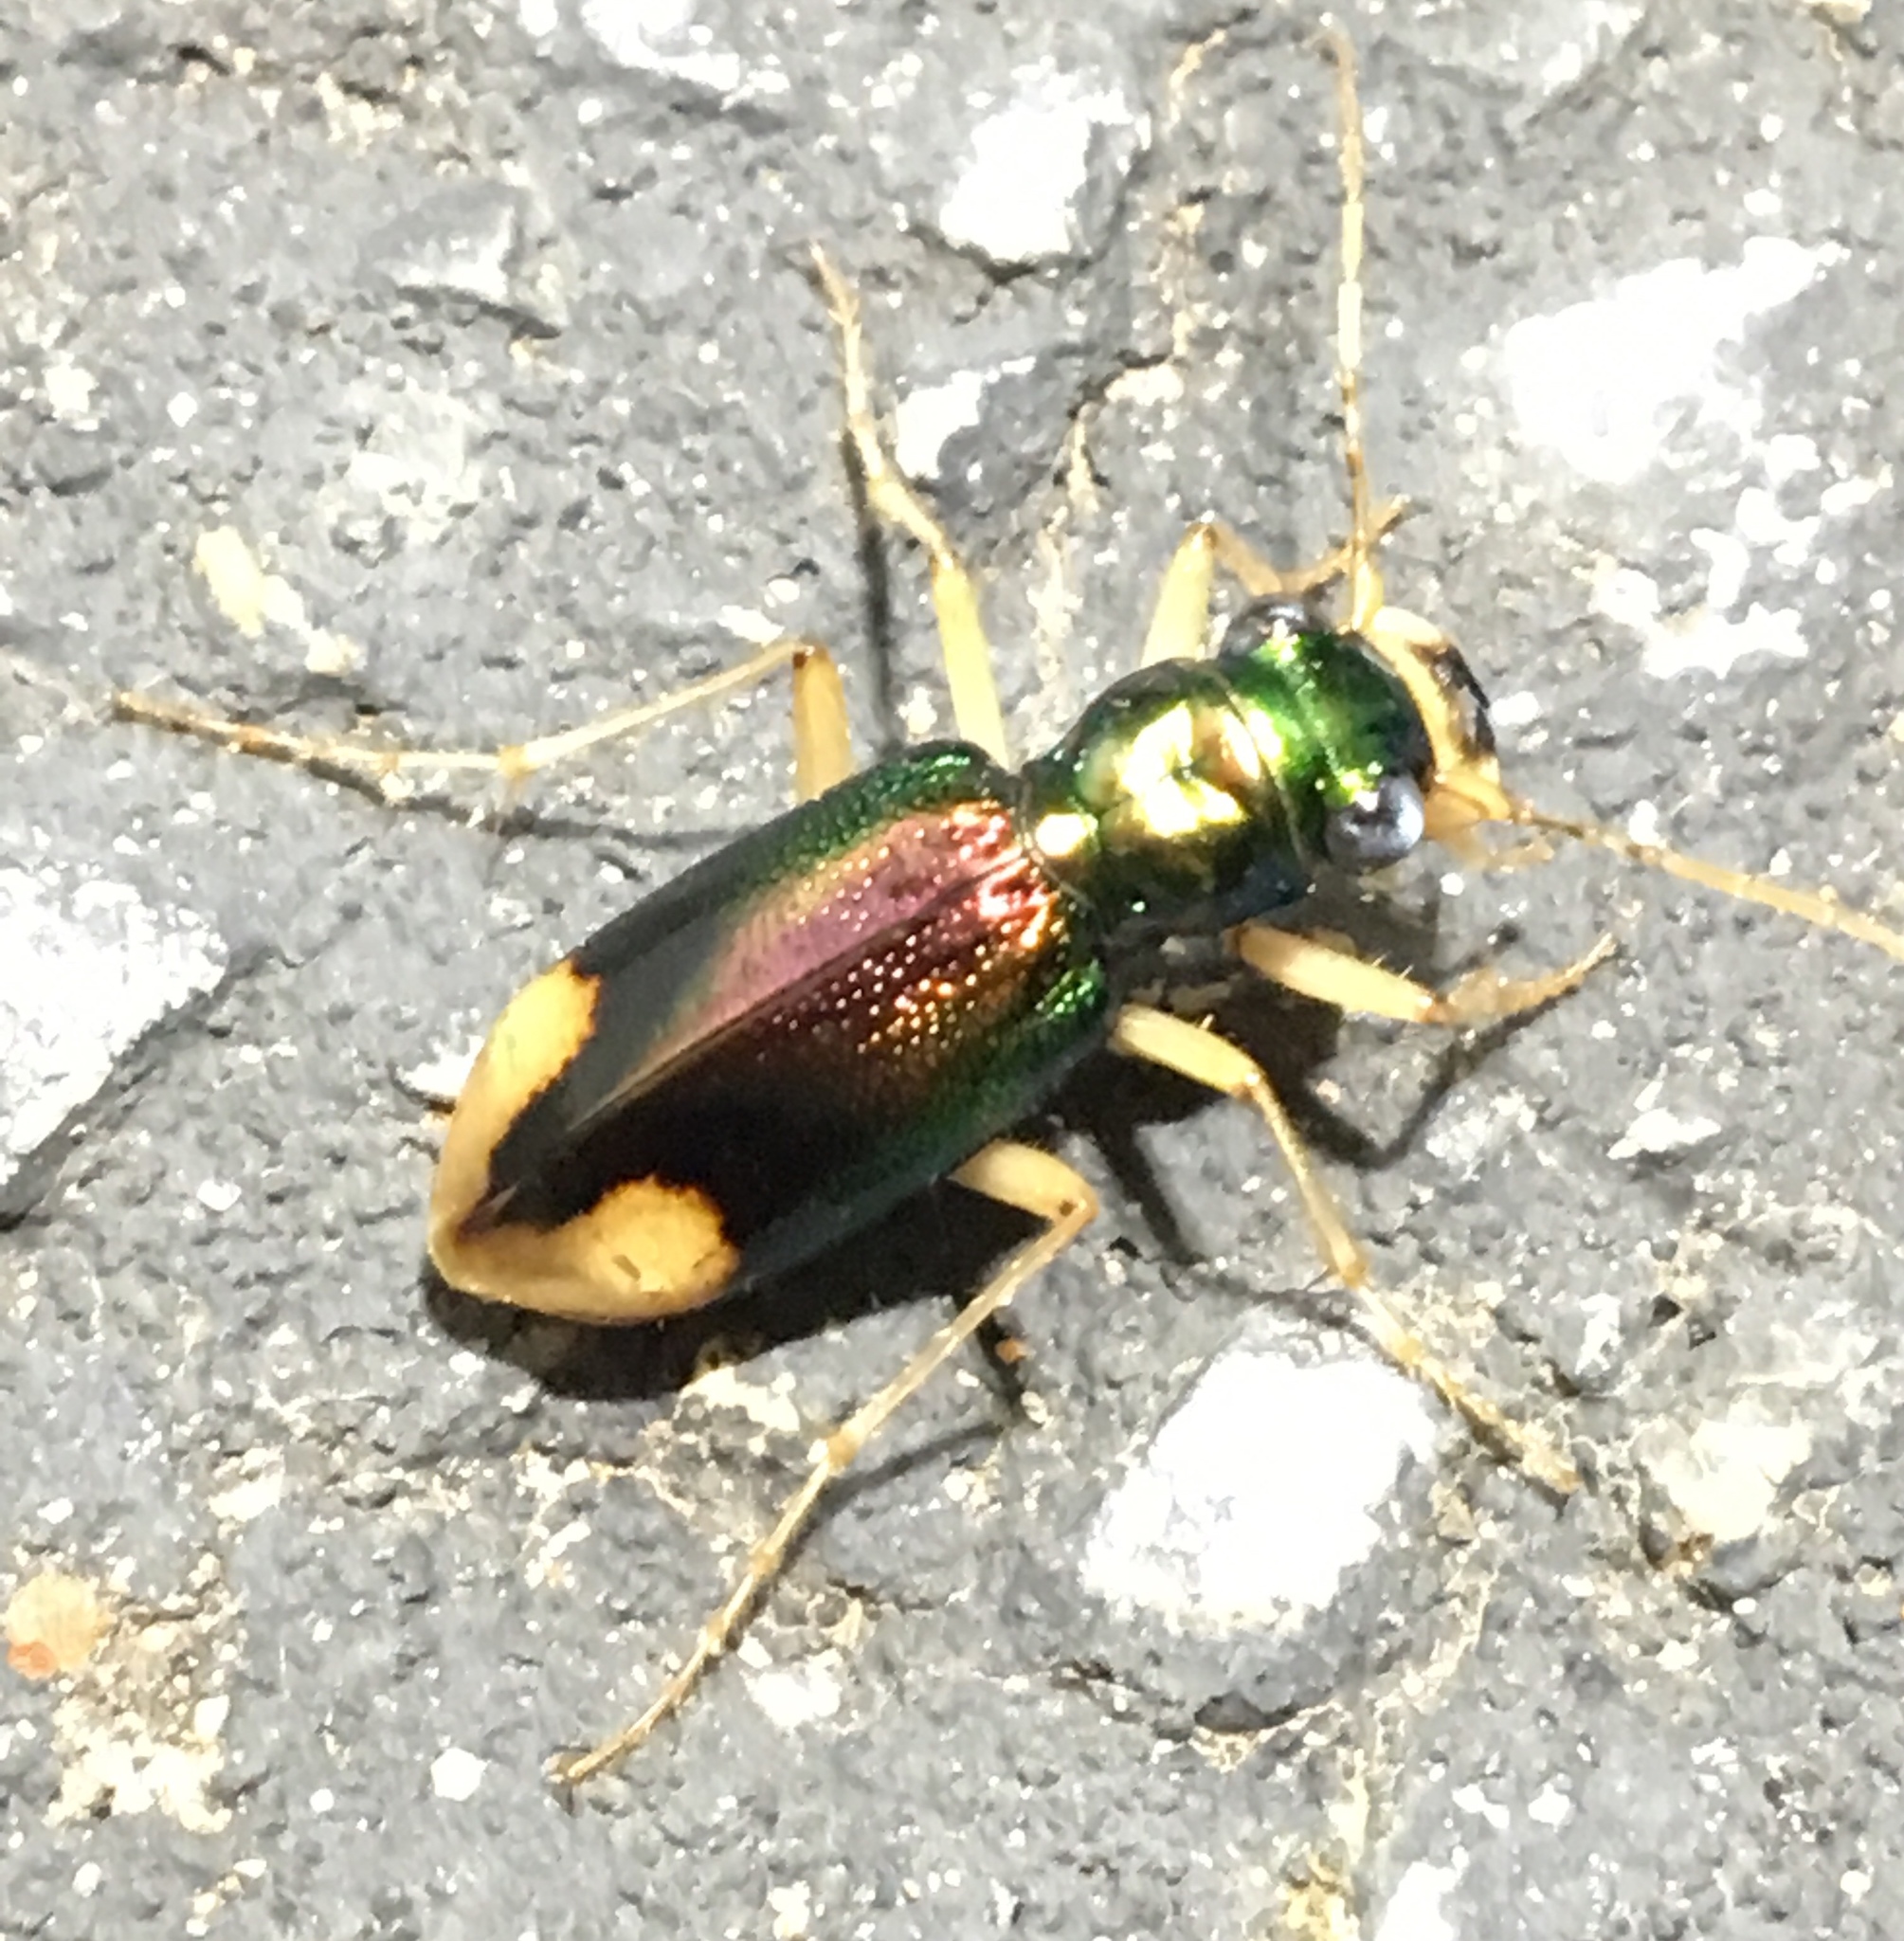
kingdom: Animalia
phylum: Arthropoda
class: Insecta
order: Coleoptera
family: Carabidae
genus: Tetracha
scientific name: Tetracha carolina
